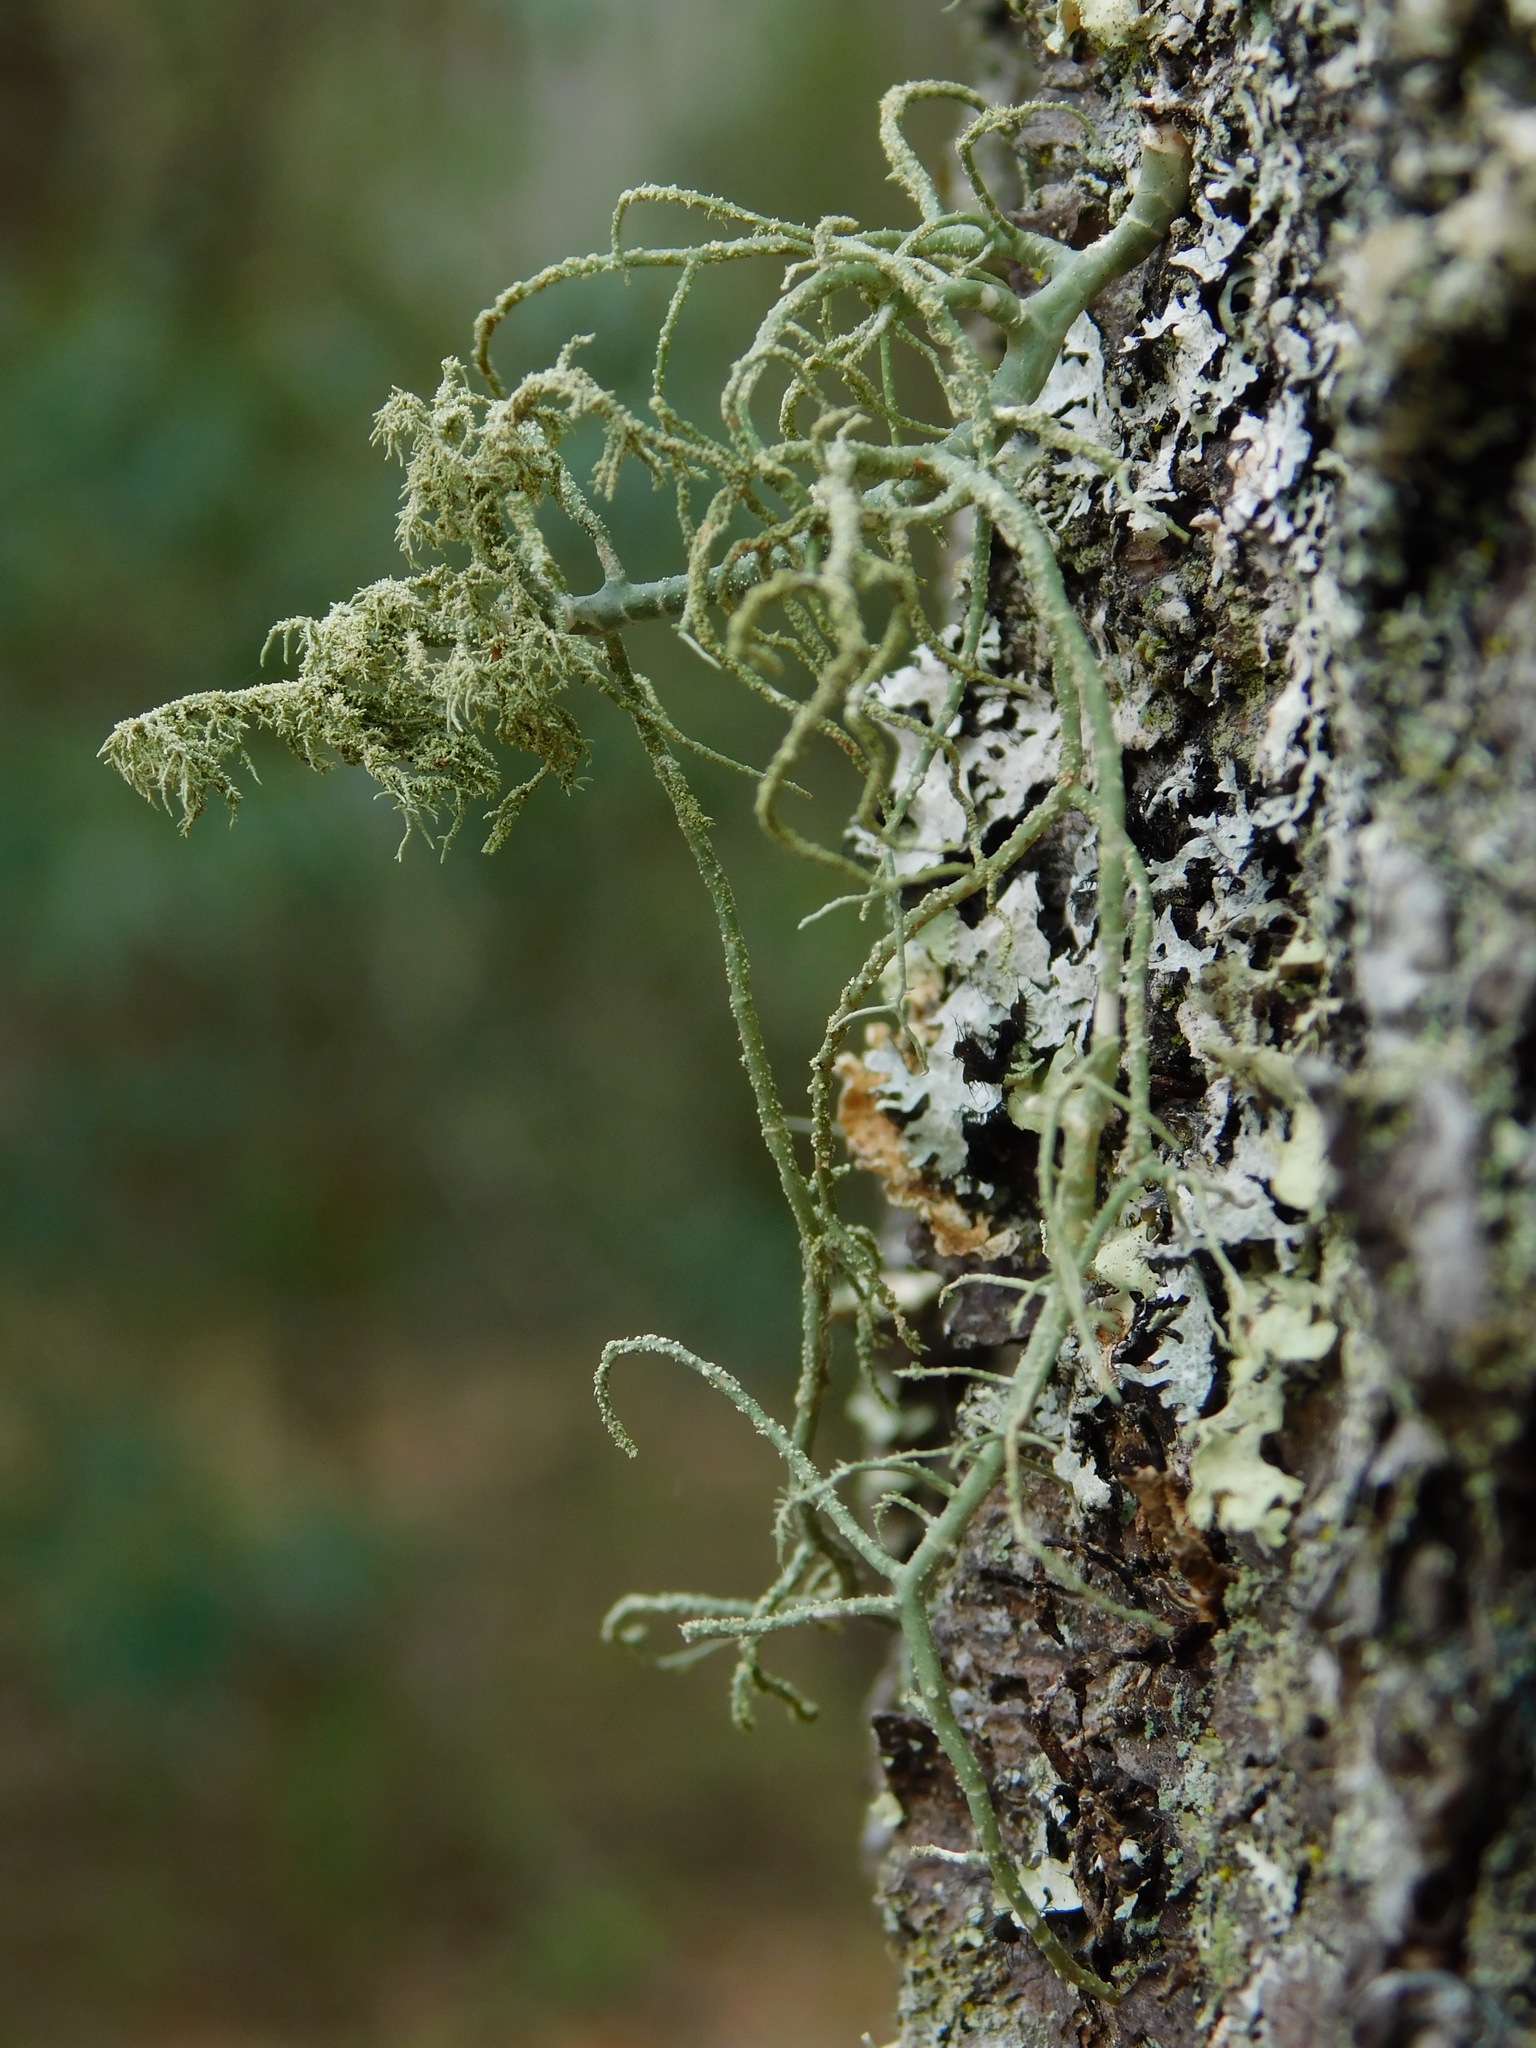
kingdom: Fungi
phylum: Ascomycota
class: Lecanoromycetes
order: Lecanorales
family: Parmeliaceae
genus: Usnea
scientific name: Usnea mutabilis
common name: Bloody beard
